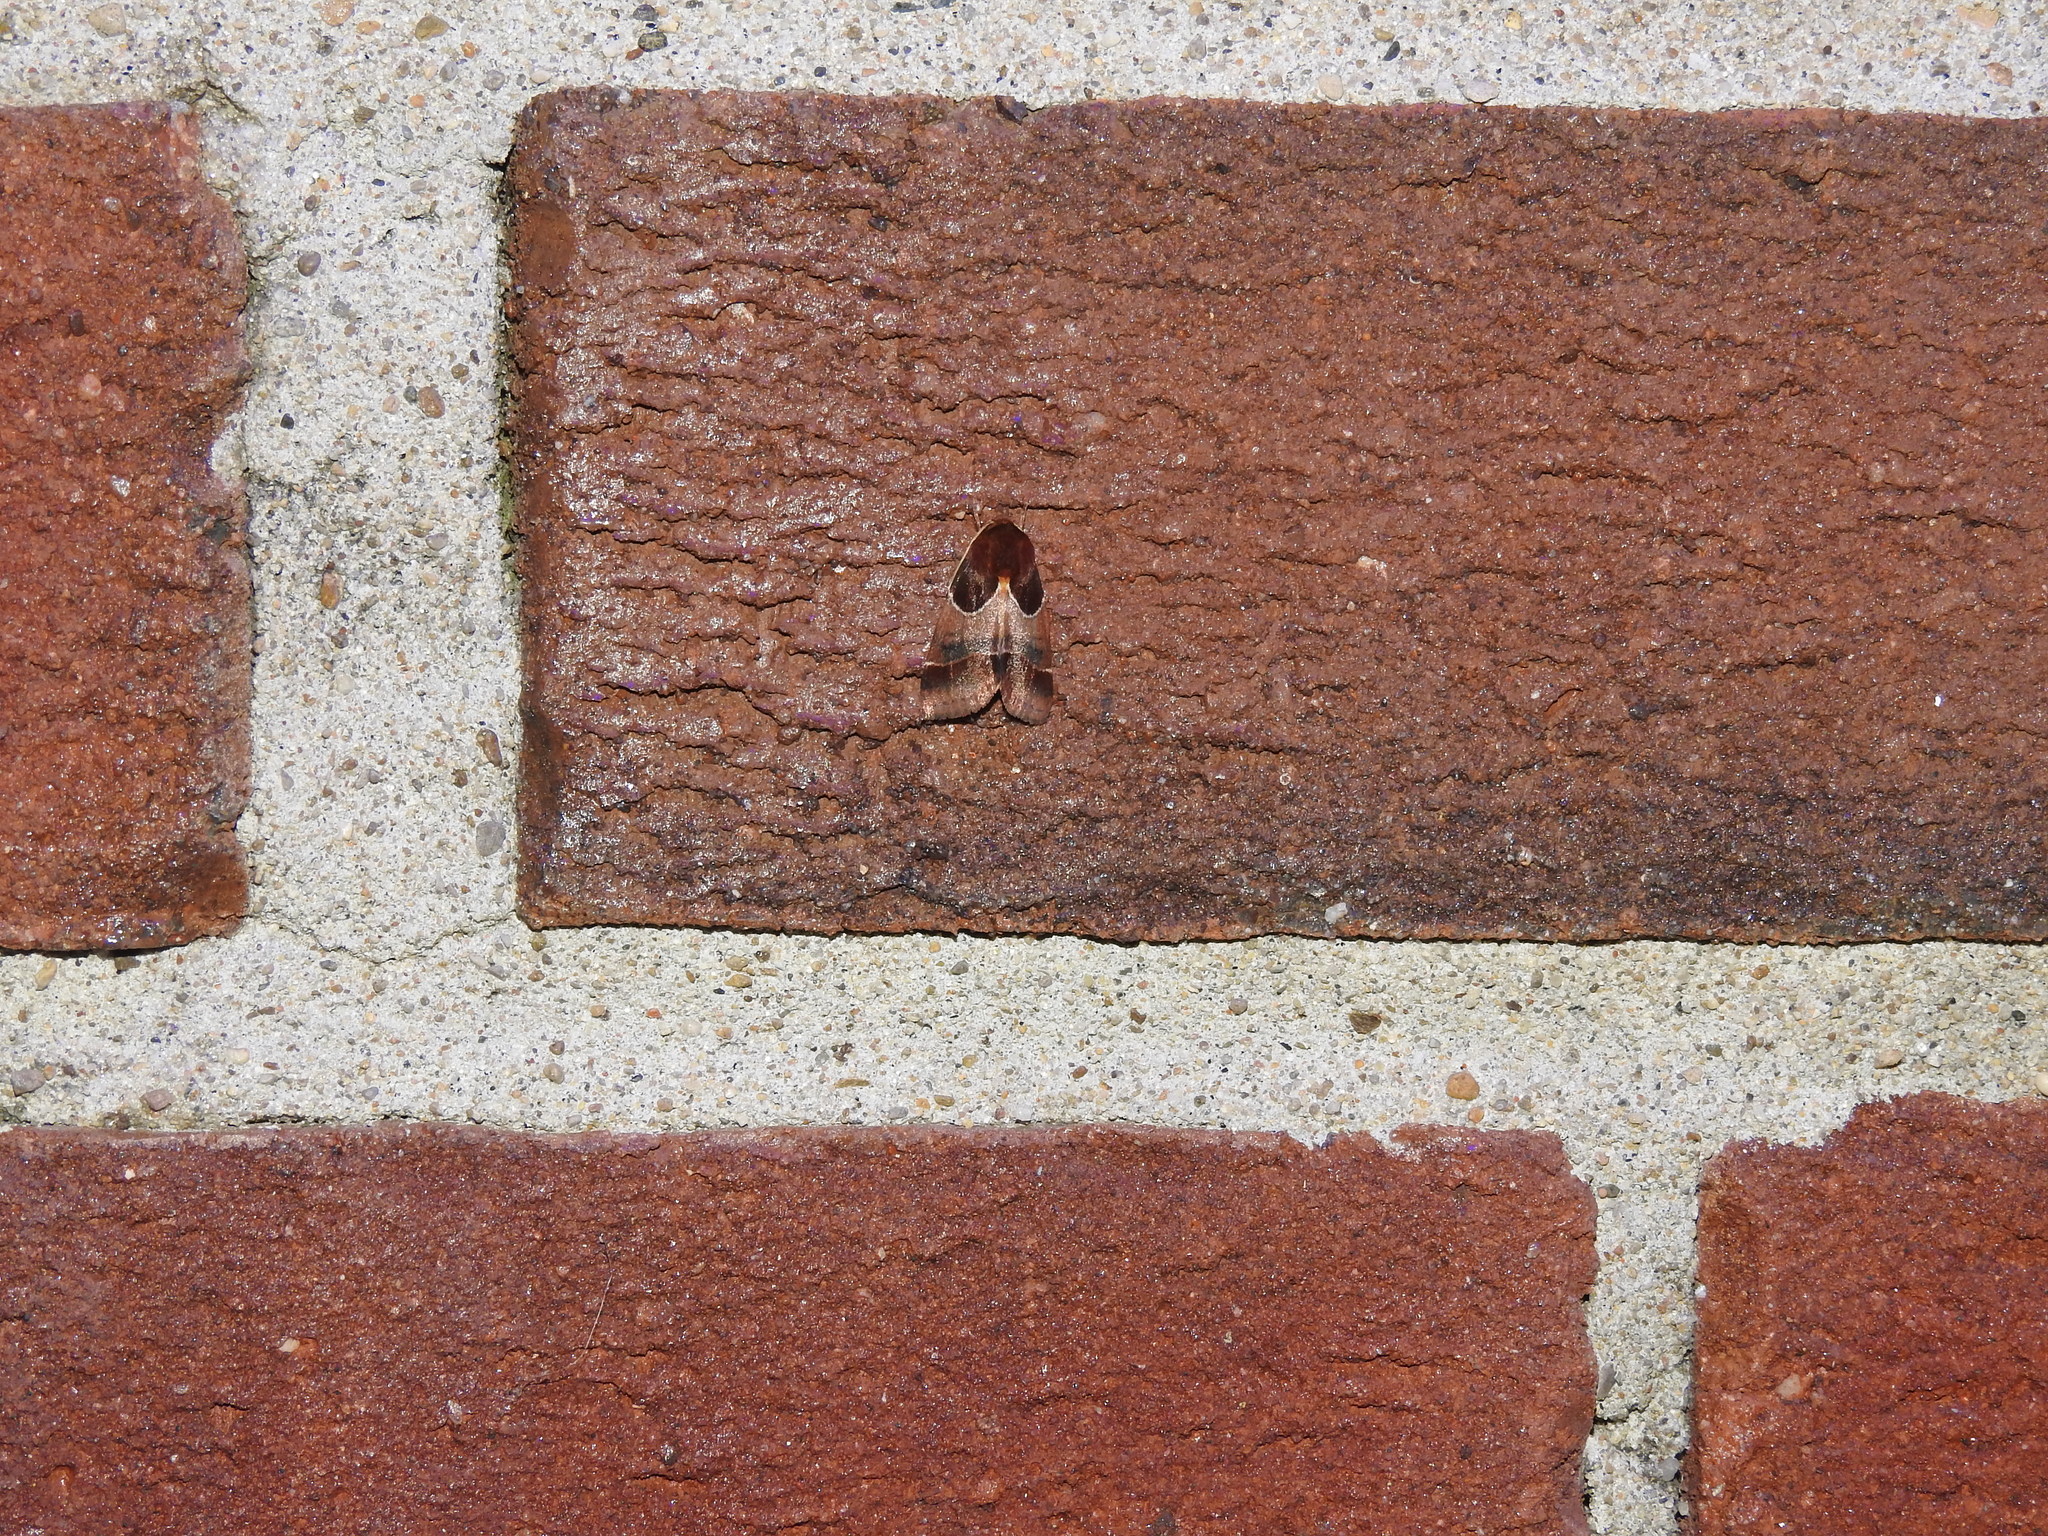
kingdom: Animalia
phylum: Arthropoda
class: Insecta
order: Lepidoptera
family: Noctuidae
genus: Schinia
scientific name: Schinia arcigera
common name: Arcigera flower moth
